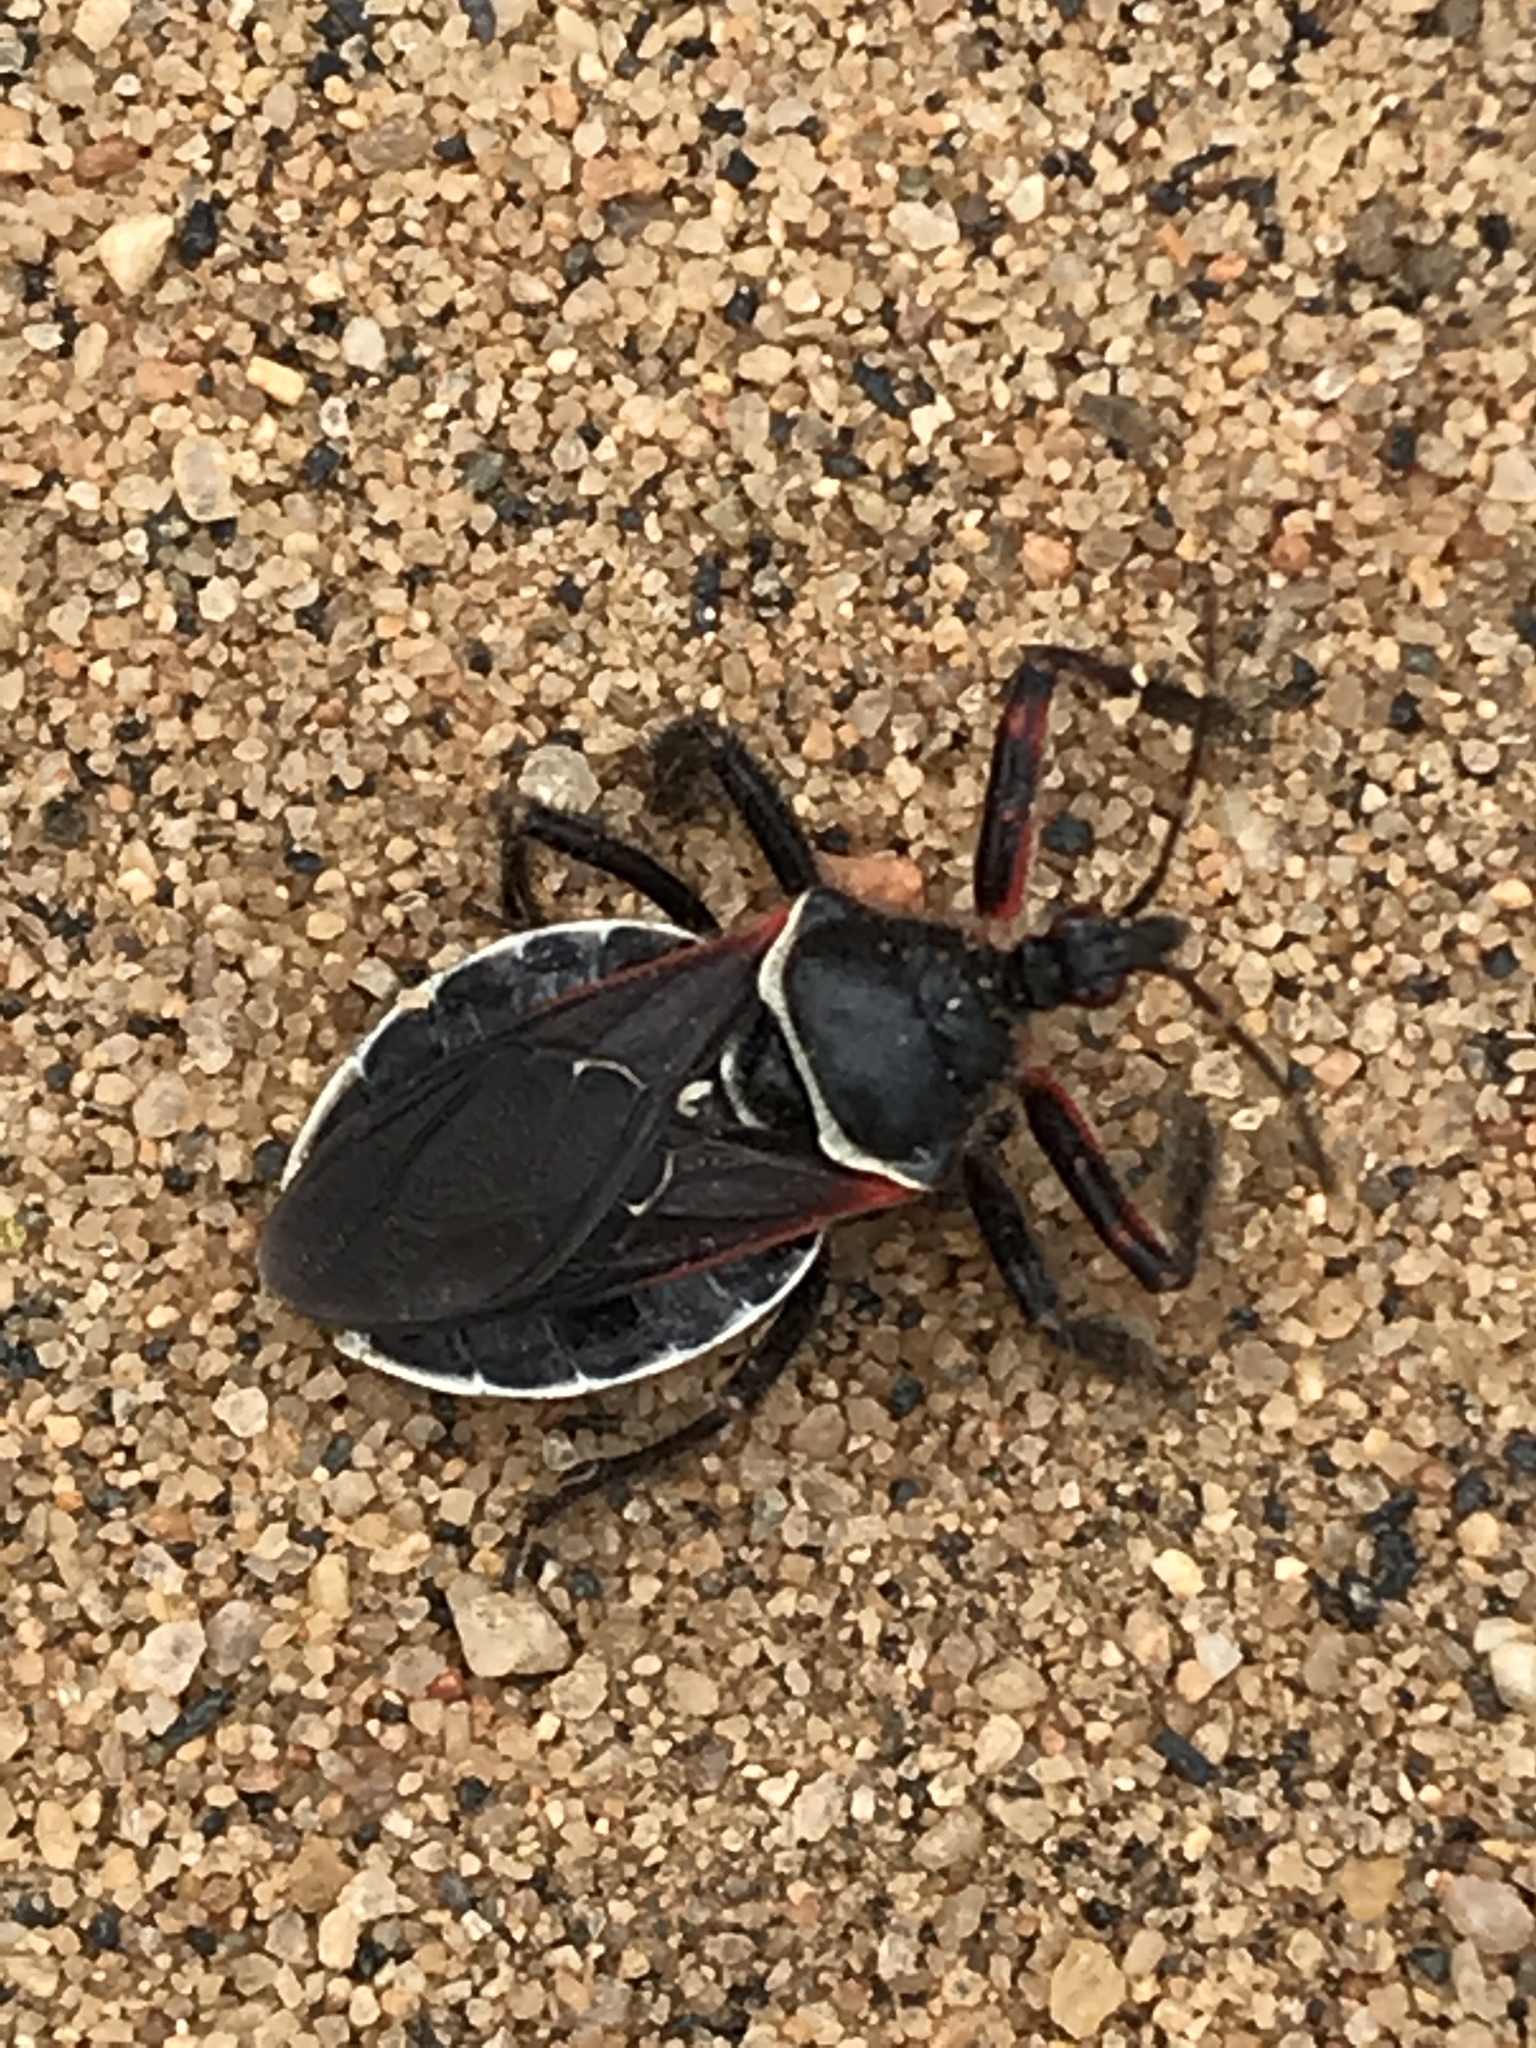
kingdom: Animalia
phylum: Arthropoda
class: Insecta
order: Hemiptera
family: Reduviidae
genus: Apiomerus
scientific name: Apiomerus californicus
